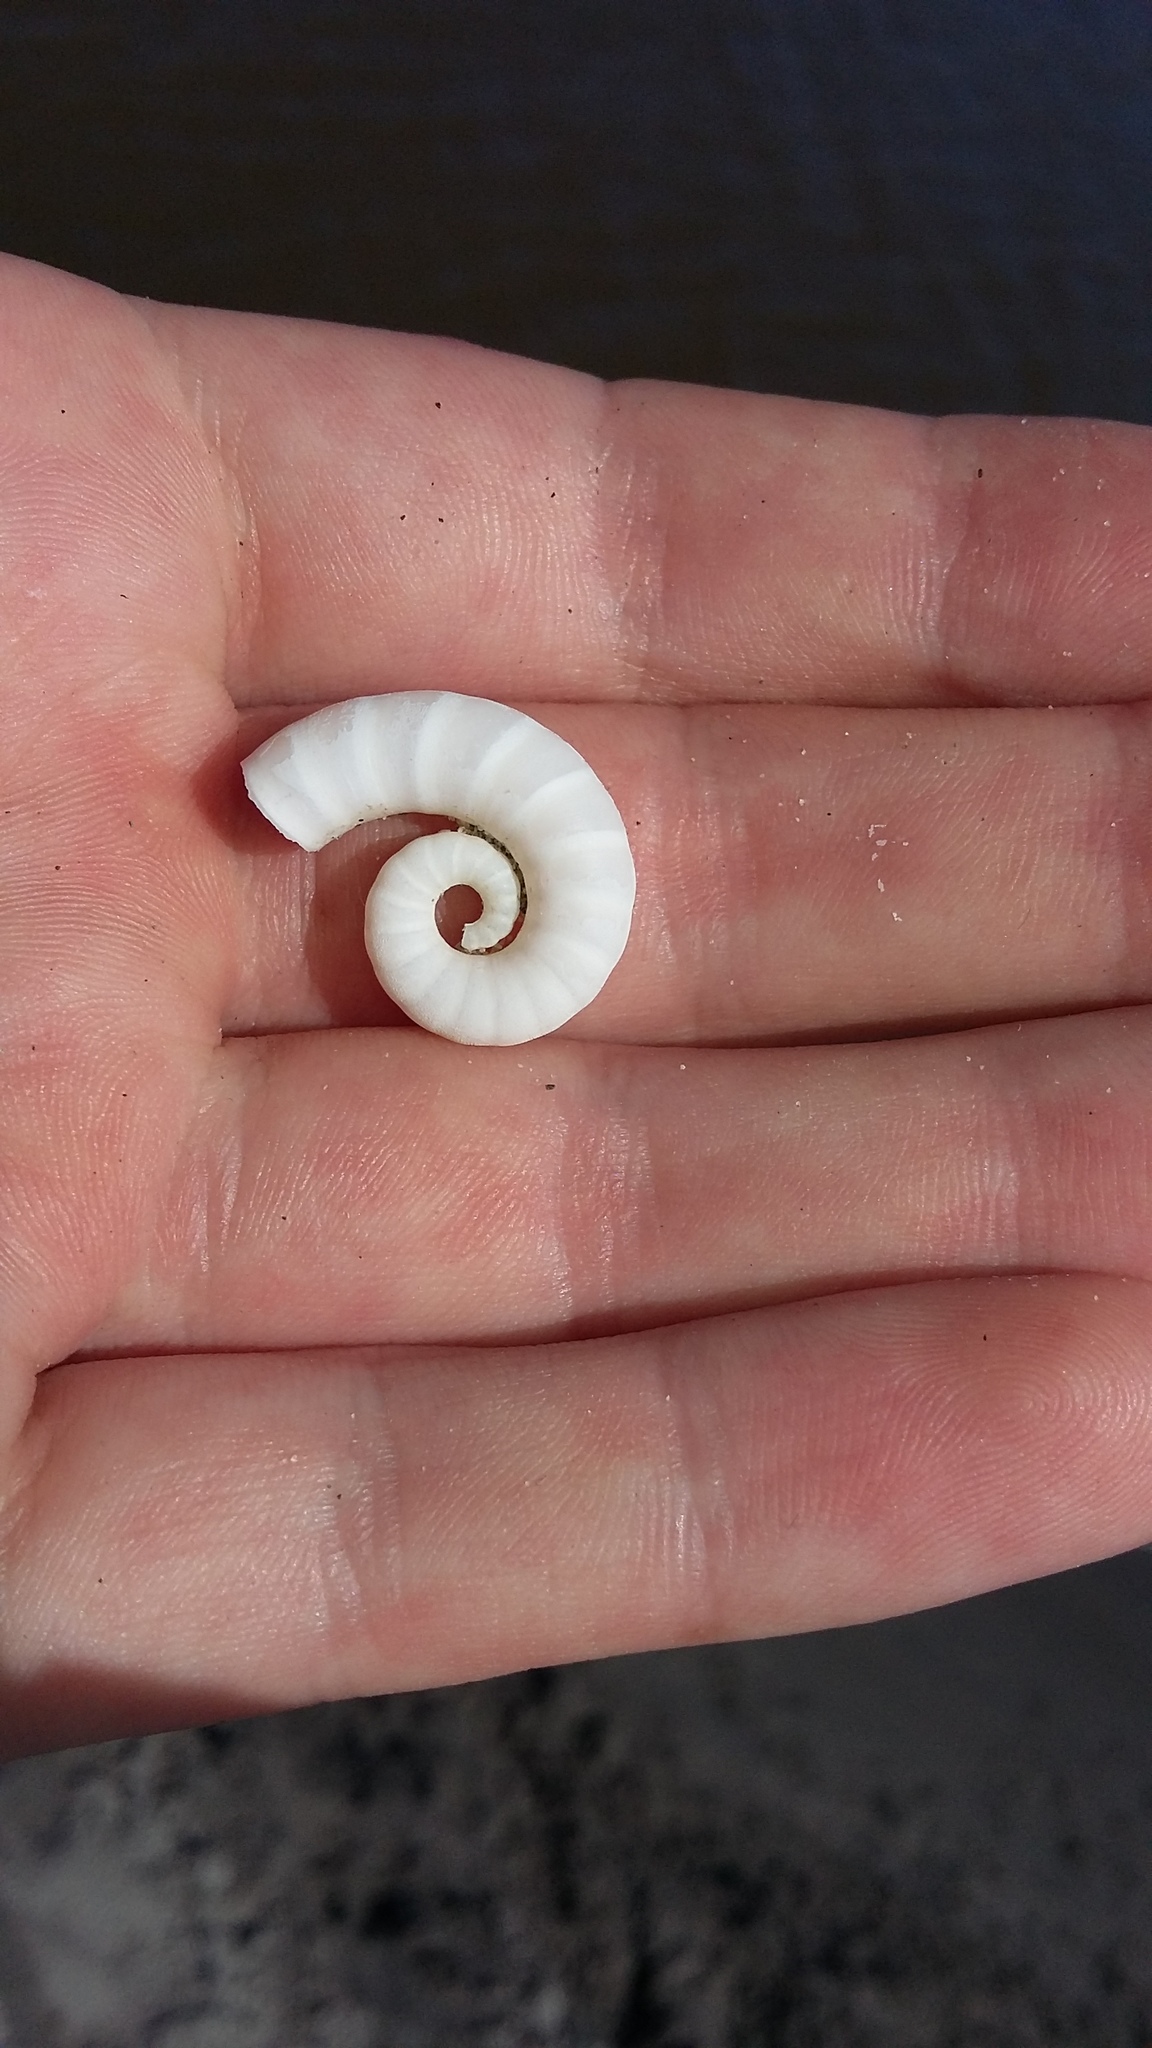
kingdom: Animalia
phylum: Mollusca
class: Cephalopoda
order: Spirulida
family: Spirulidae
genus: Spirula
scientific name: Spirula spirula
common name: Ram's horn squid
